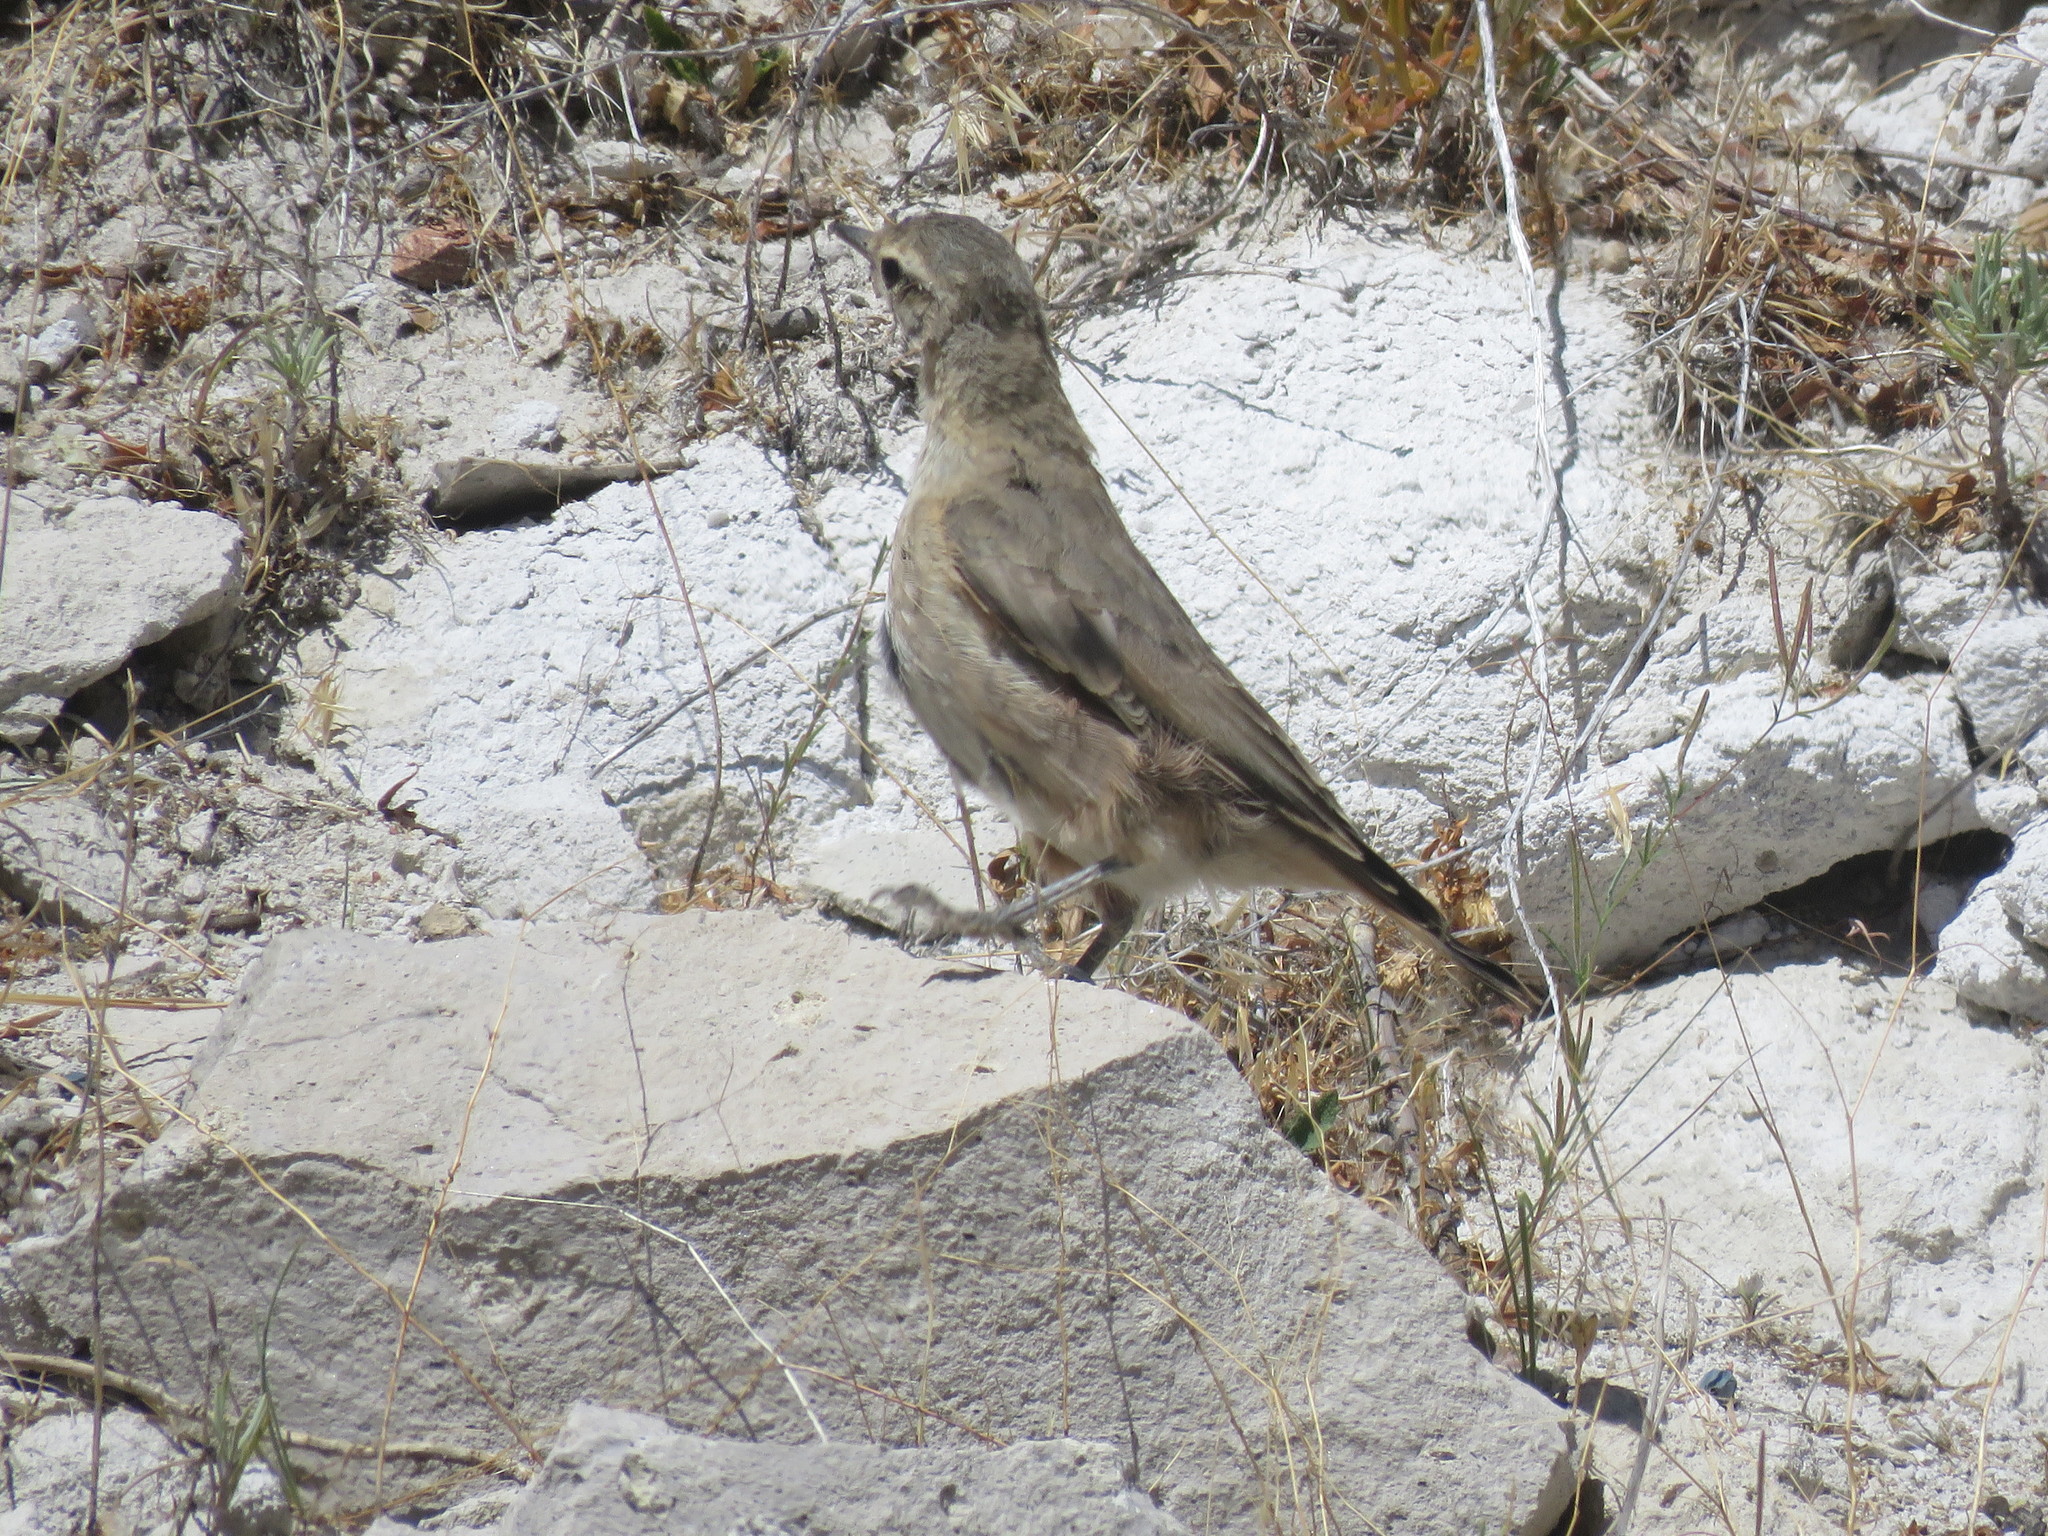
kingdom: Animalia
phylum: Chordata
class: Aves
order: Passeriformes
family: Furnariidae
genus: Geositta
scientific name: Geositta rufipennis
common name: Rufous-banded miner
